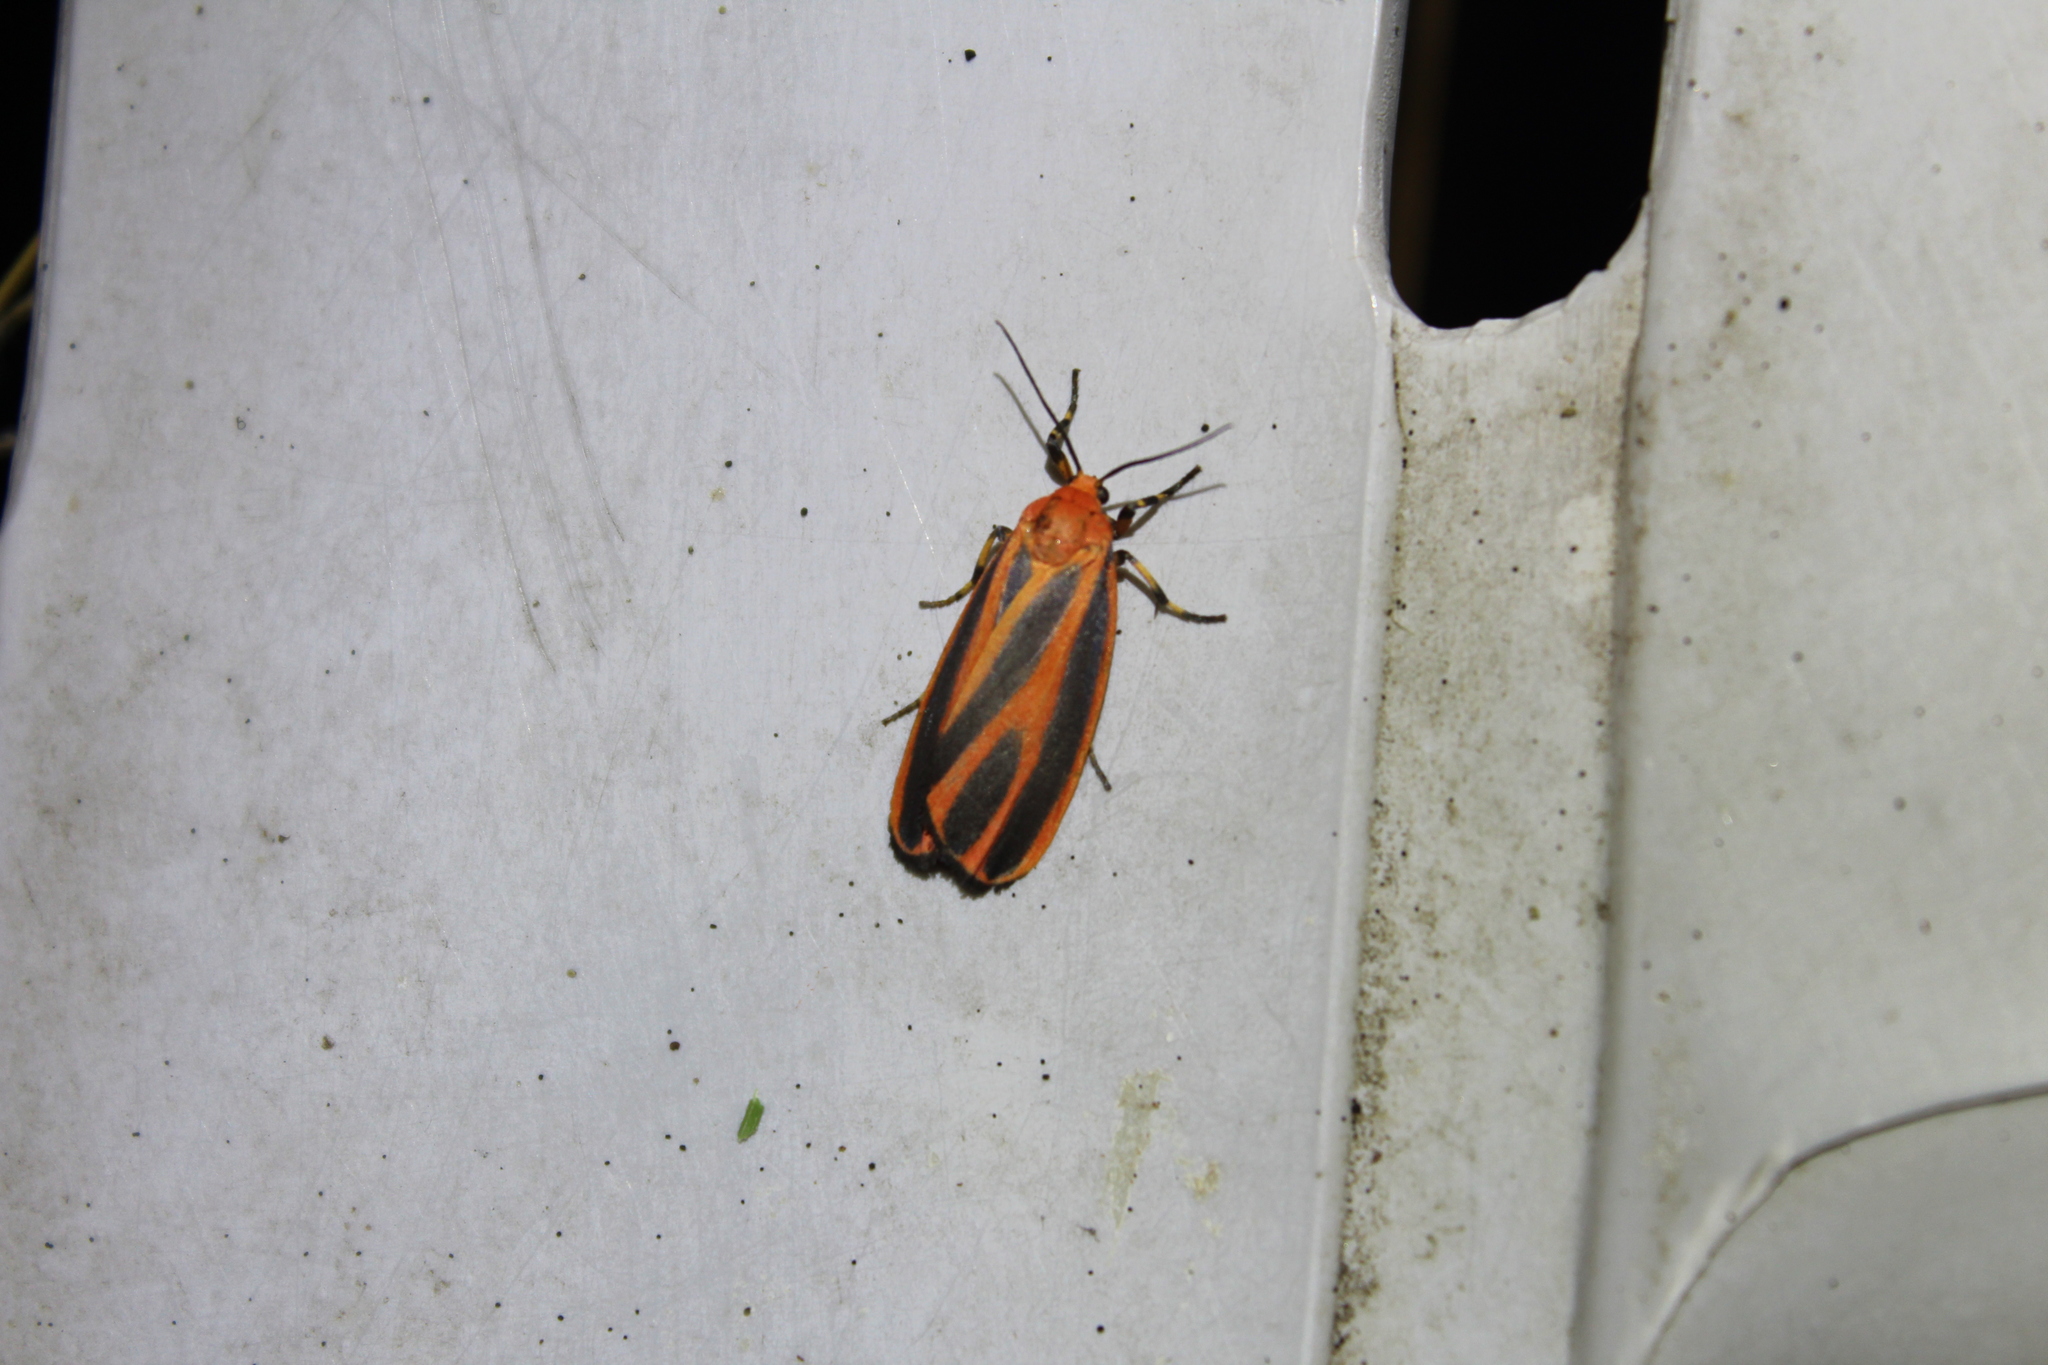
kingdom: Animalia
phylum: Arthropoda
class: Insecta
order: Lepidoptera
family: Erebidae
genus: Hypoprepia
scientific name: Hypoprepia miniata
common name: Scarlet-winged lichen moth
